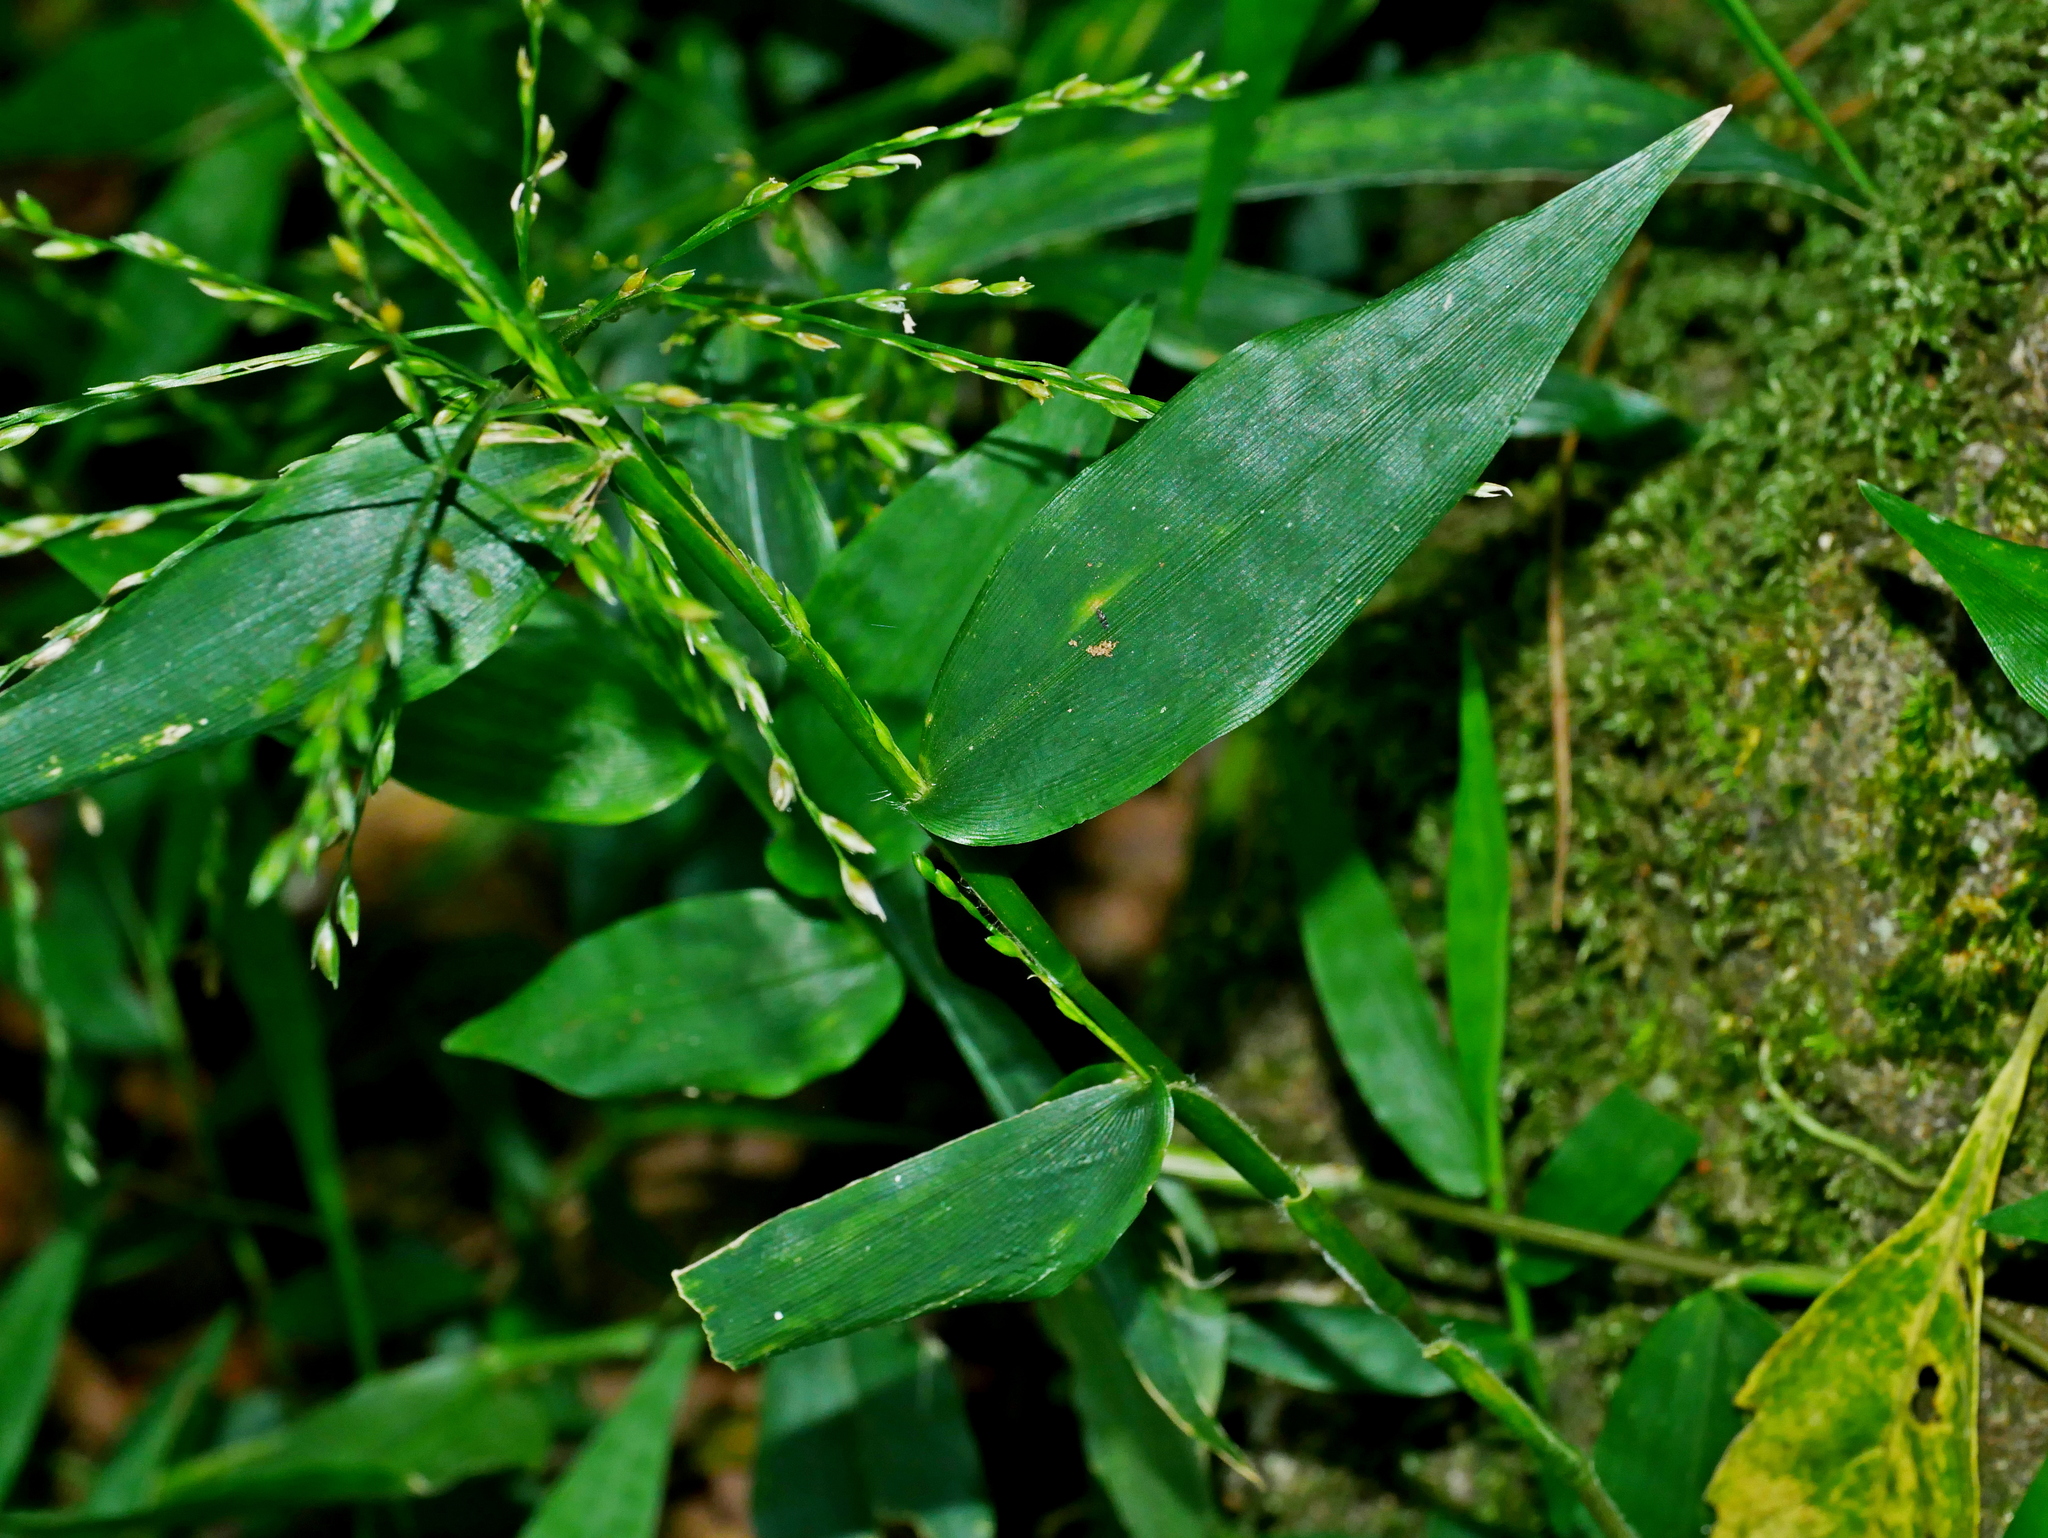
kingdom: Plantae
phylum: Tracheophyta
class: Liliopsida
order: Poales
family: Poaceae
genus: Ichnanthus
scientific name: Ichnanthus pallens
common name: Water grass
